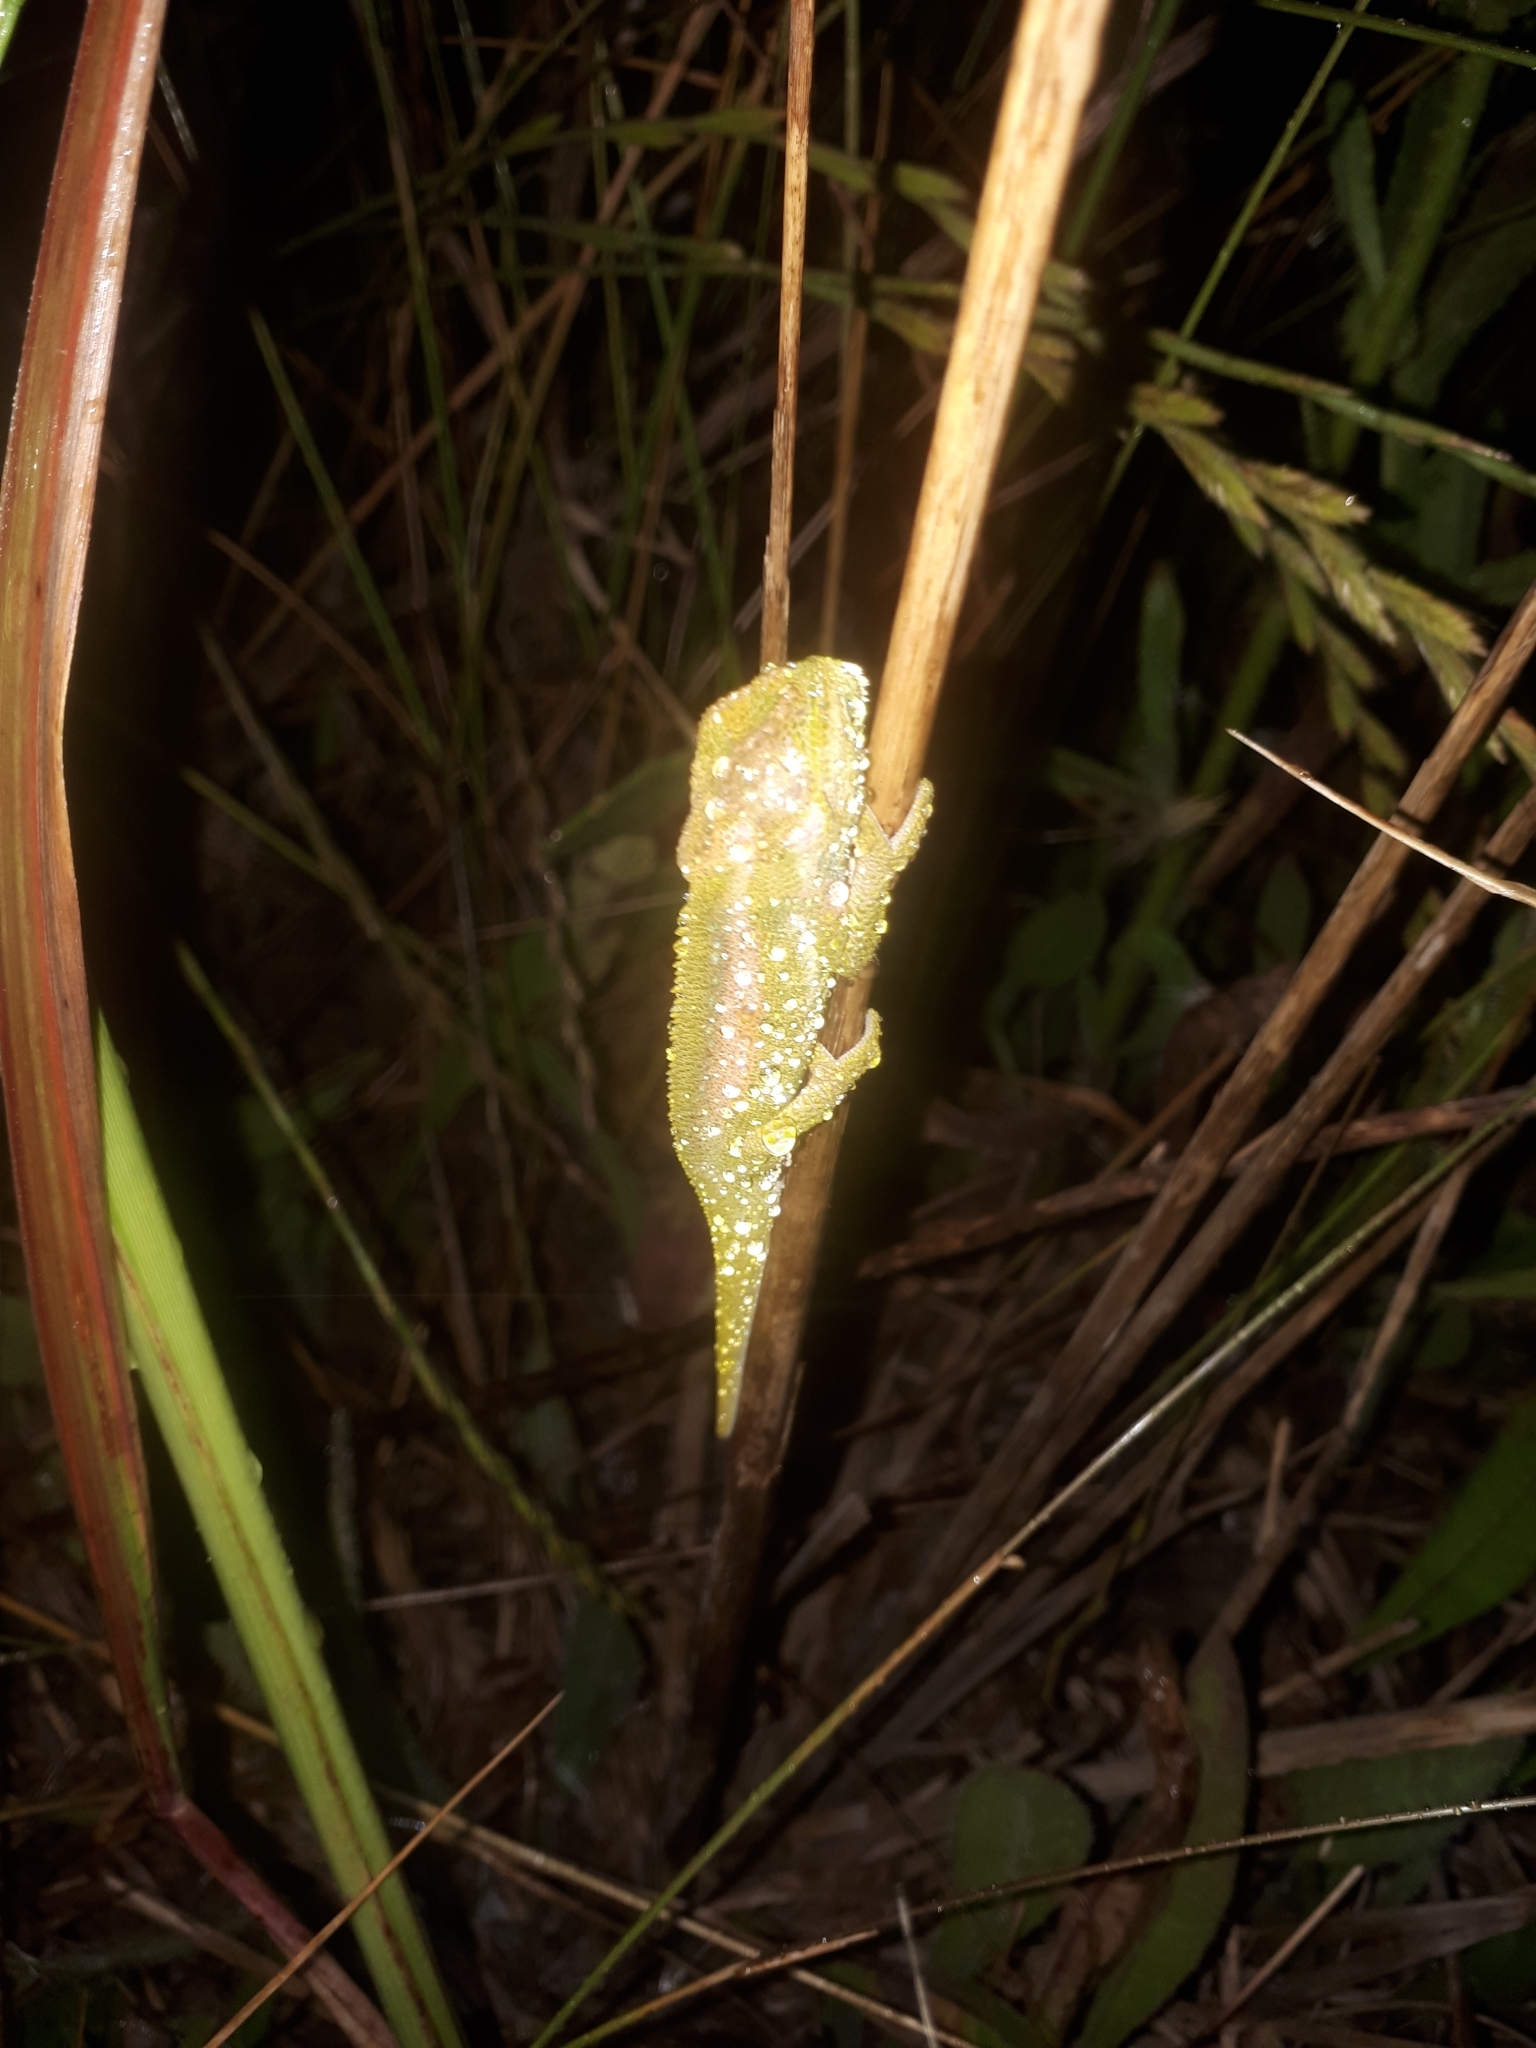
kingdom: Animalia
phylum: Chordata
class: Squamata
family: Chamaeleonidae
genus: Bradypodion
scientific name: Bradypodion pumilum
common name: Cape dwarf chameleon
